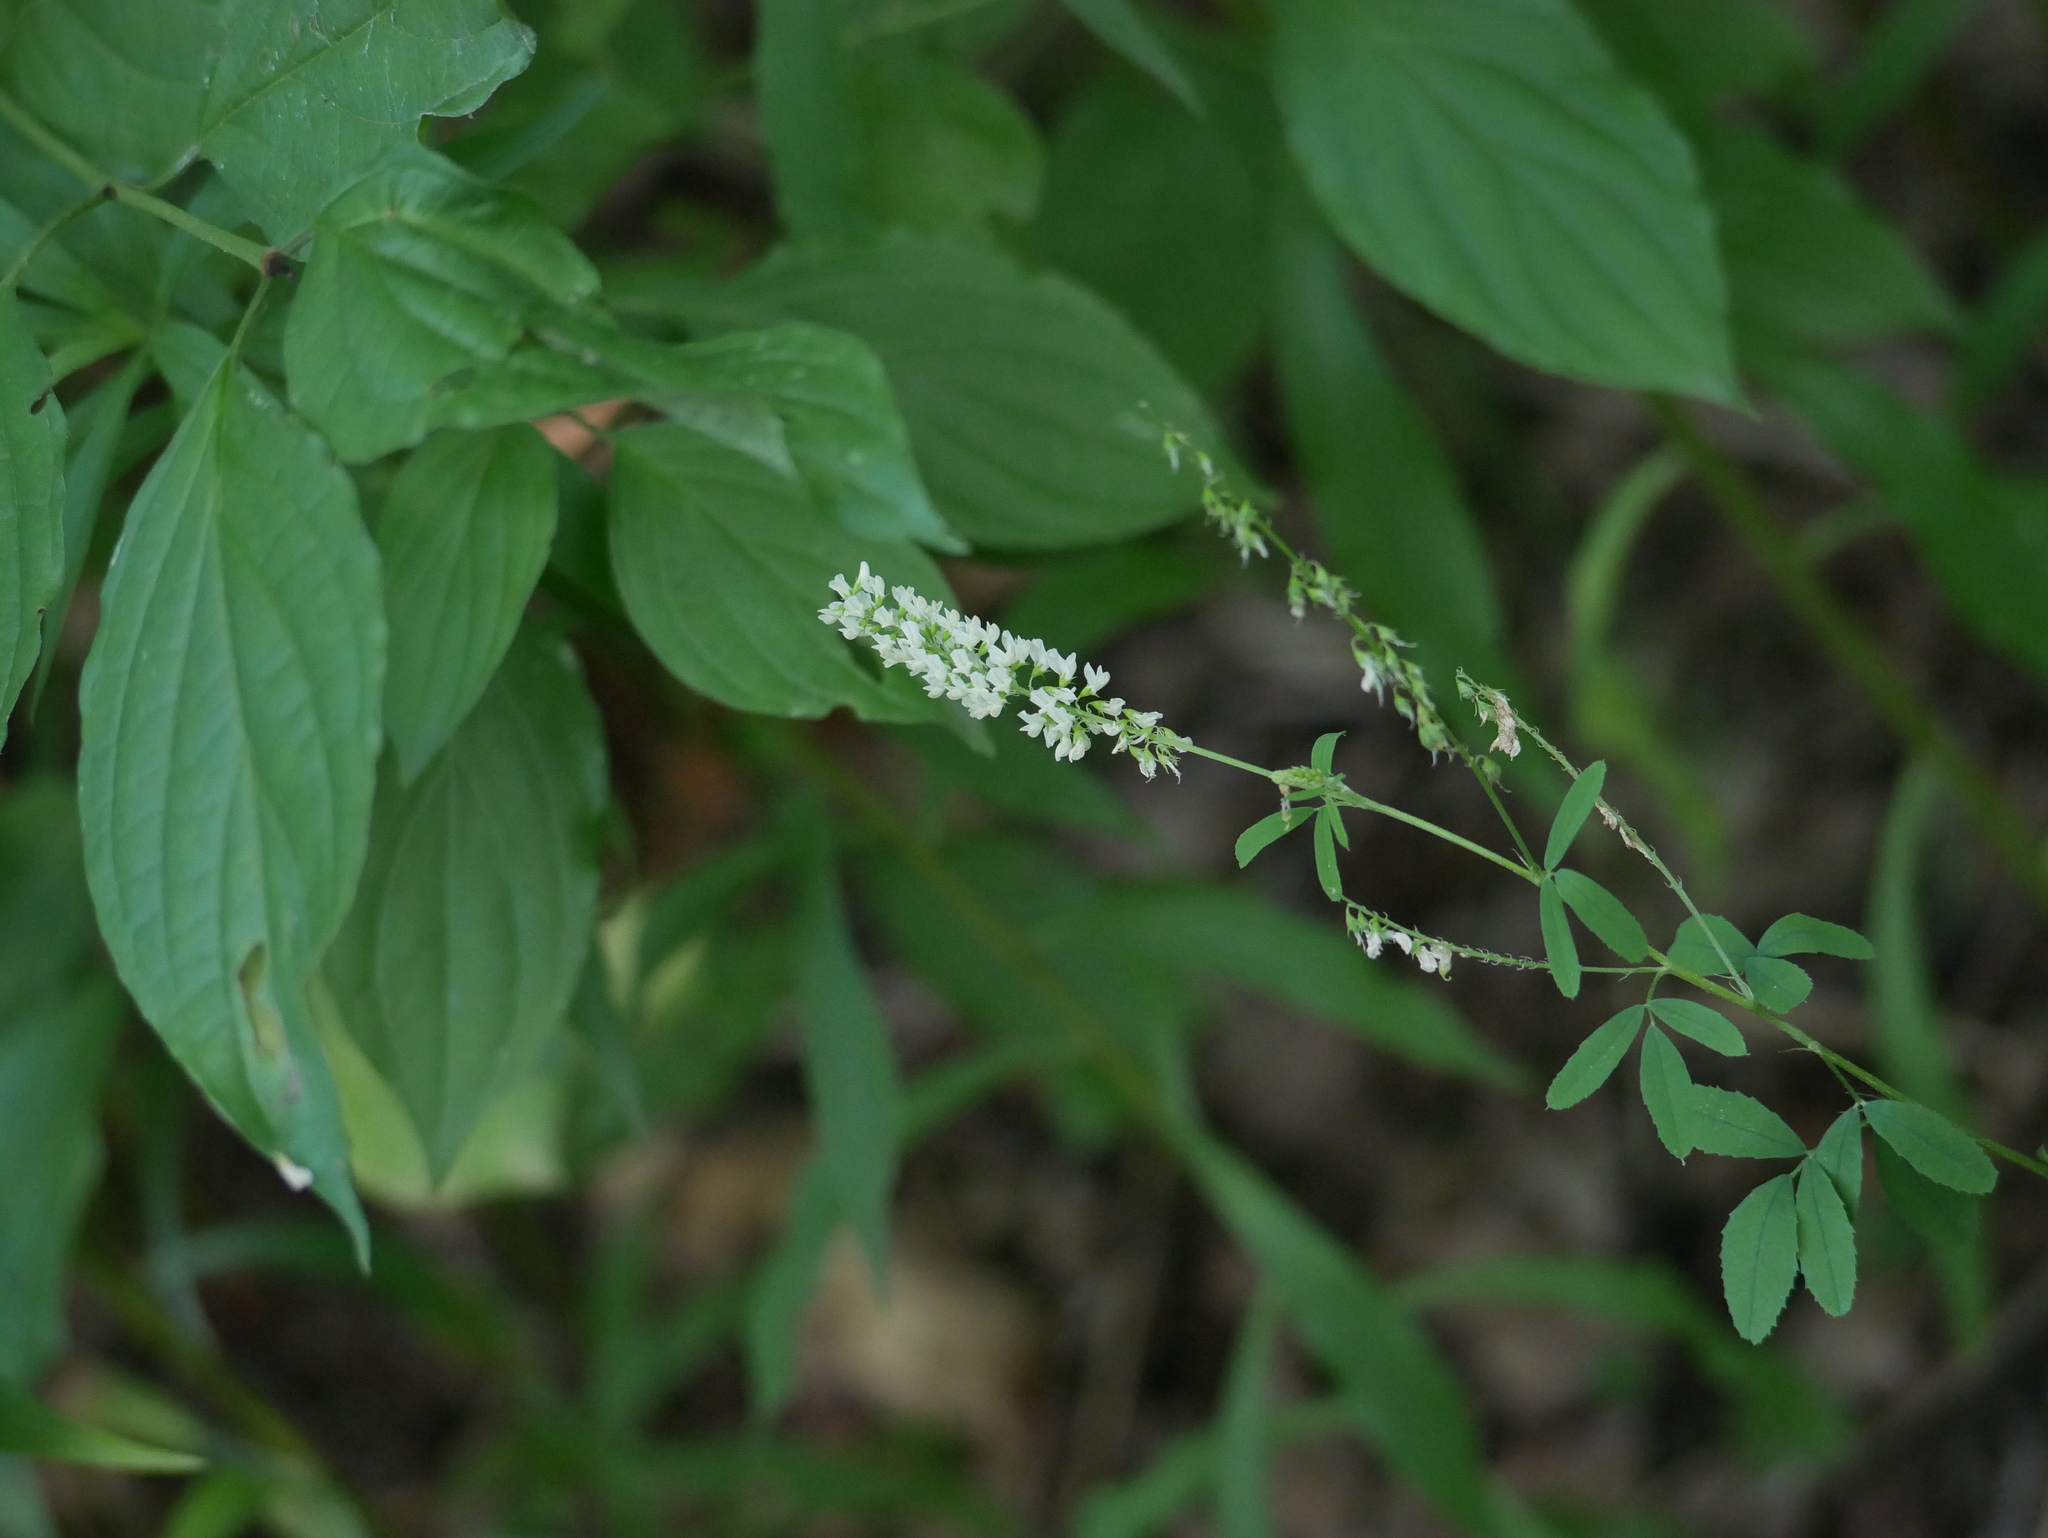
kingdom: Plantae
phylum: Tracheophyta
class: Magnoliopsida
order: Fabales
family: Fabaceae
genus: Melilotus
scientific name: Melilotus albus
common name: White melilot
